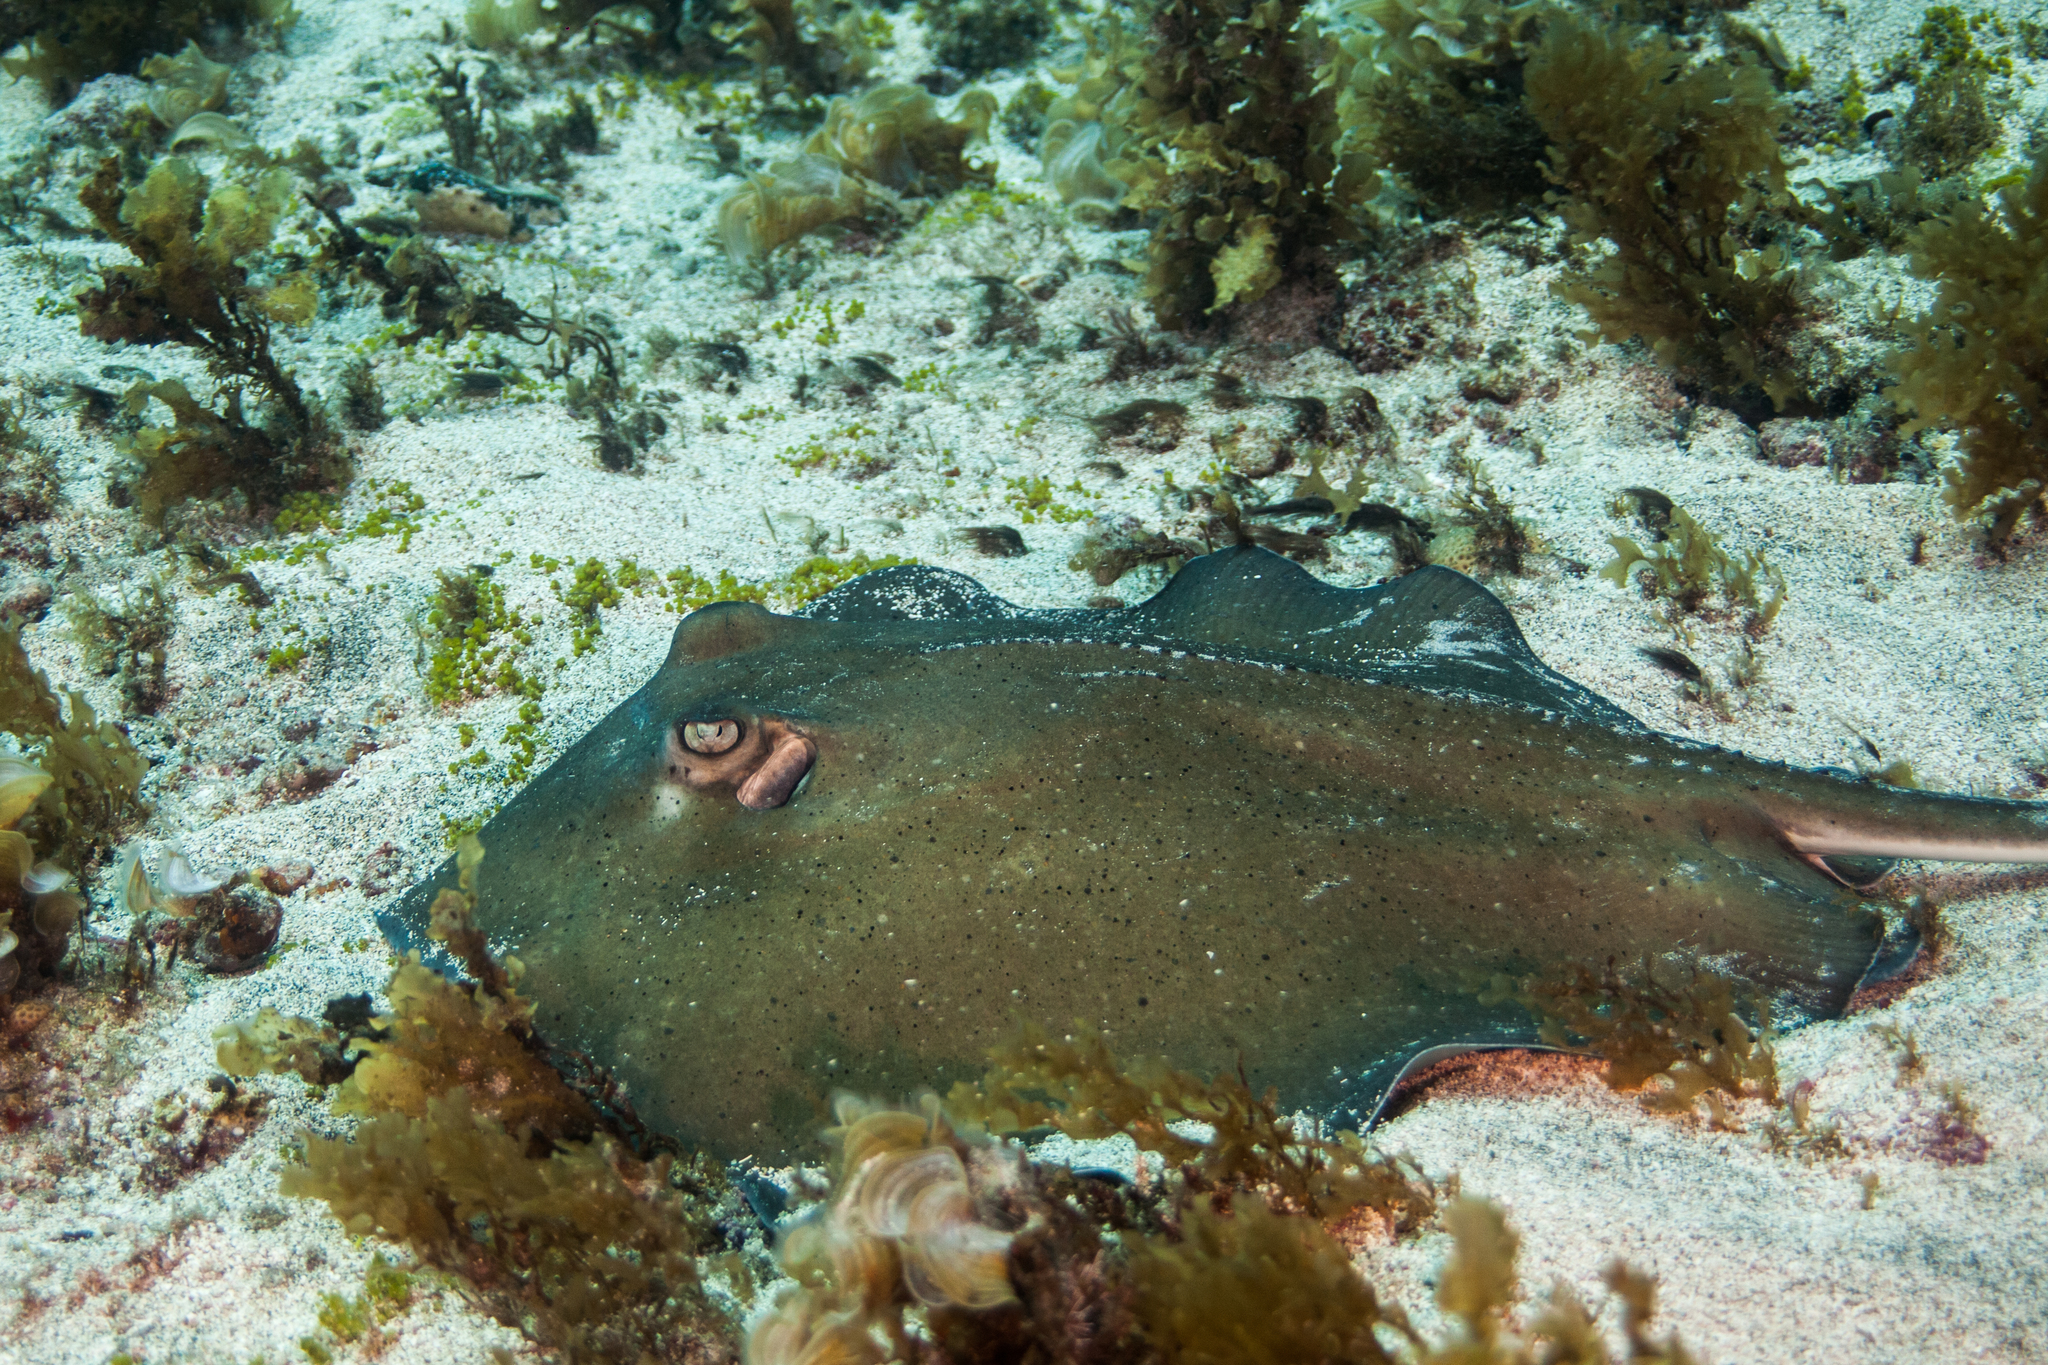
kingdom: Animalia
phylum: Chordata
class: Elasmobranchii
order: Myliobatiformes
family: Dasyatidae
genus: Hypanus
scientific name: Hypanus berthalutzae
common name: Lutz's stingray
